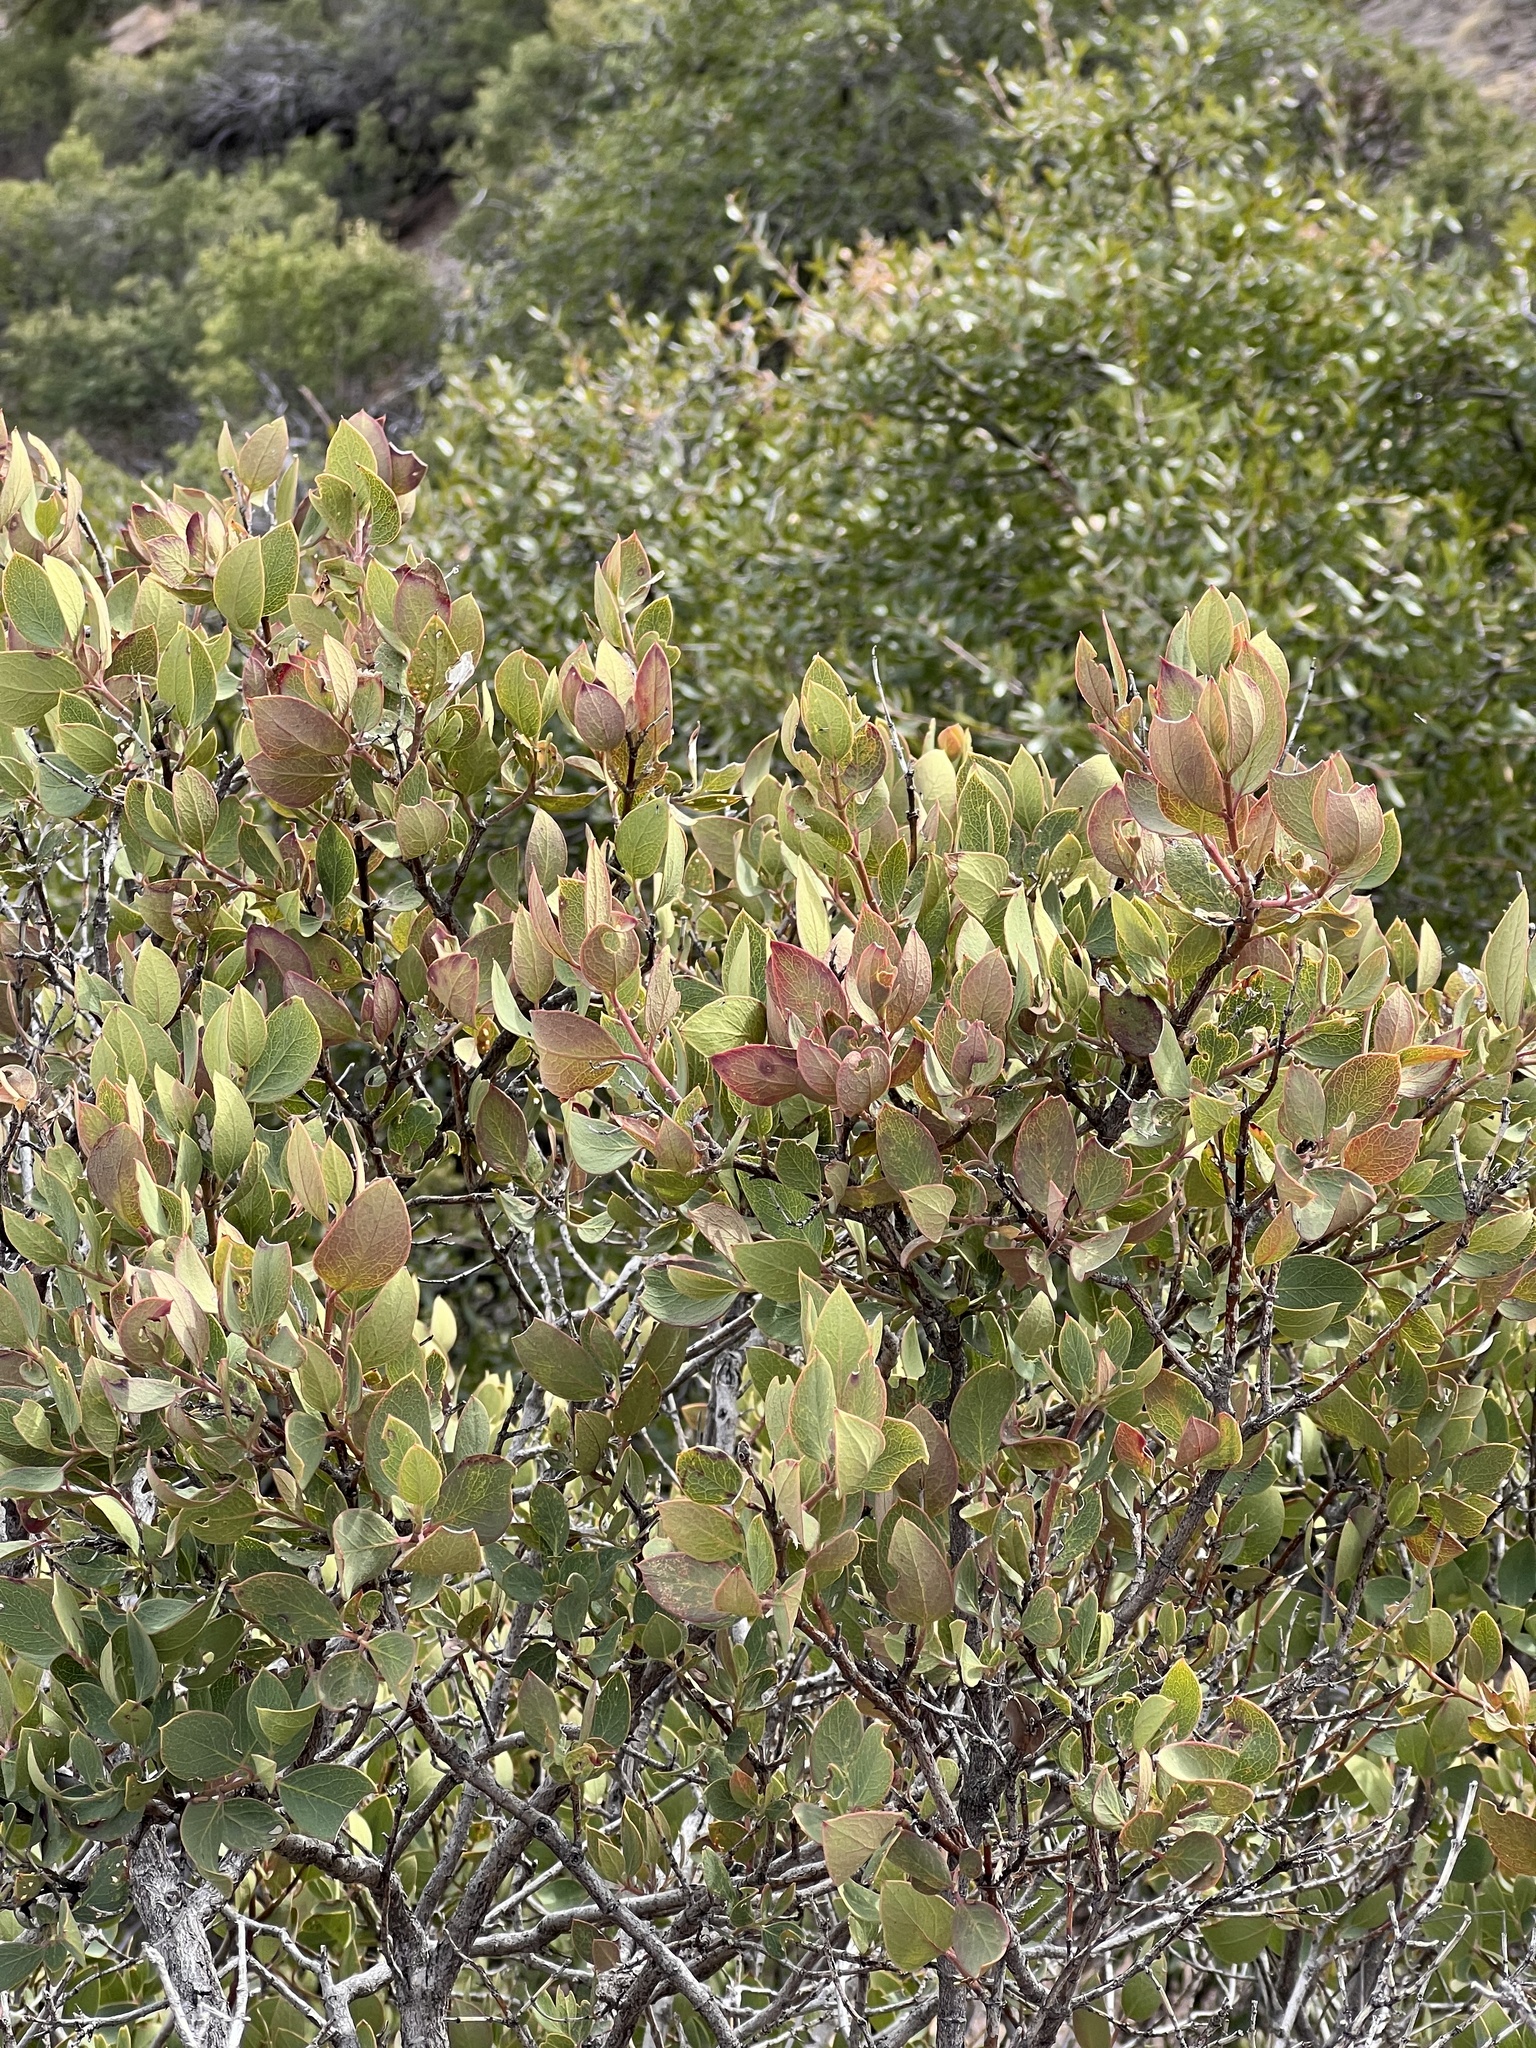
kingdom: Plantae
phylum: Tracheophyta
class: Magnoliopsida
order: Garryales
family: Garryaceae
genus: Garrya
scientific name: Garrya wrightii
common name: Wright's silktassel
